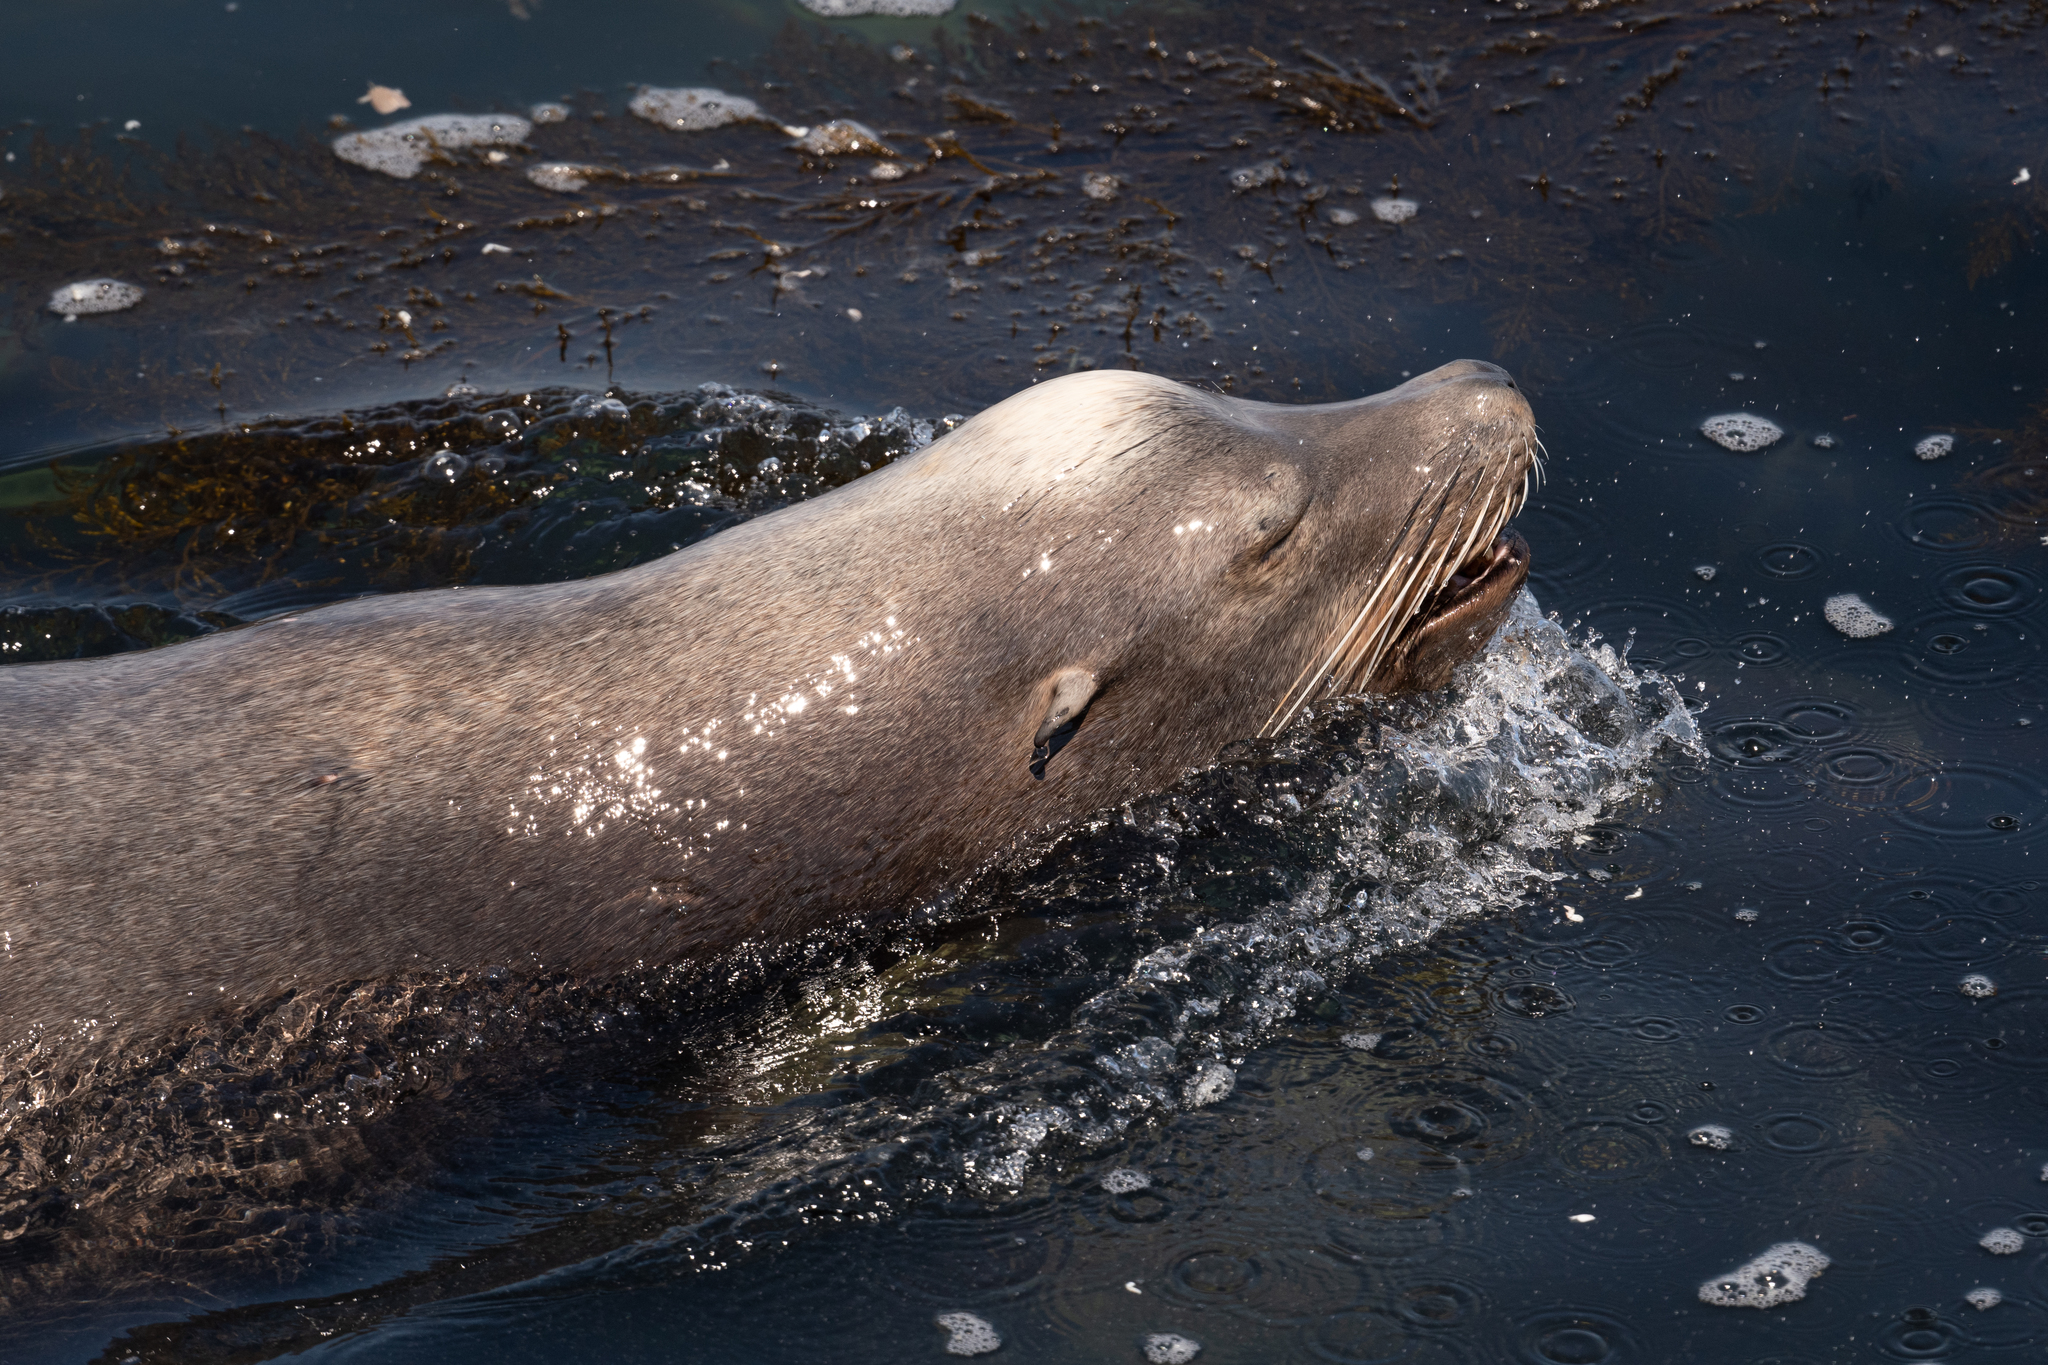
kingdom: Animalia
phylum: Chordata
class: Mammalia
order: Carnivora
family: Otariidae
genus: Zalophus
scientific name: Zalophus californianus
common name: California sea lion
